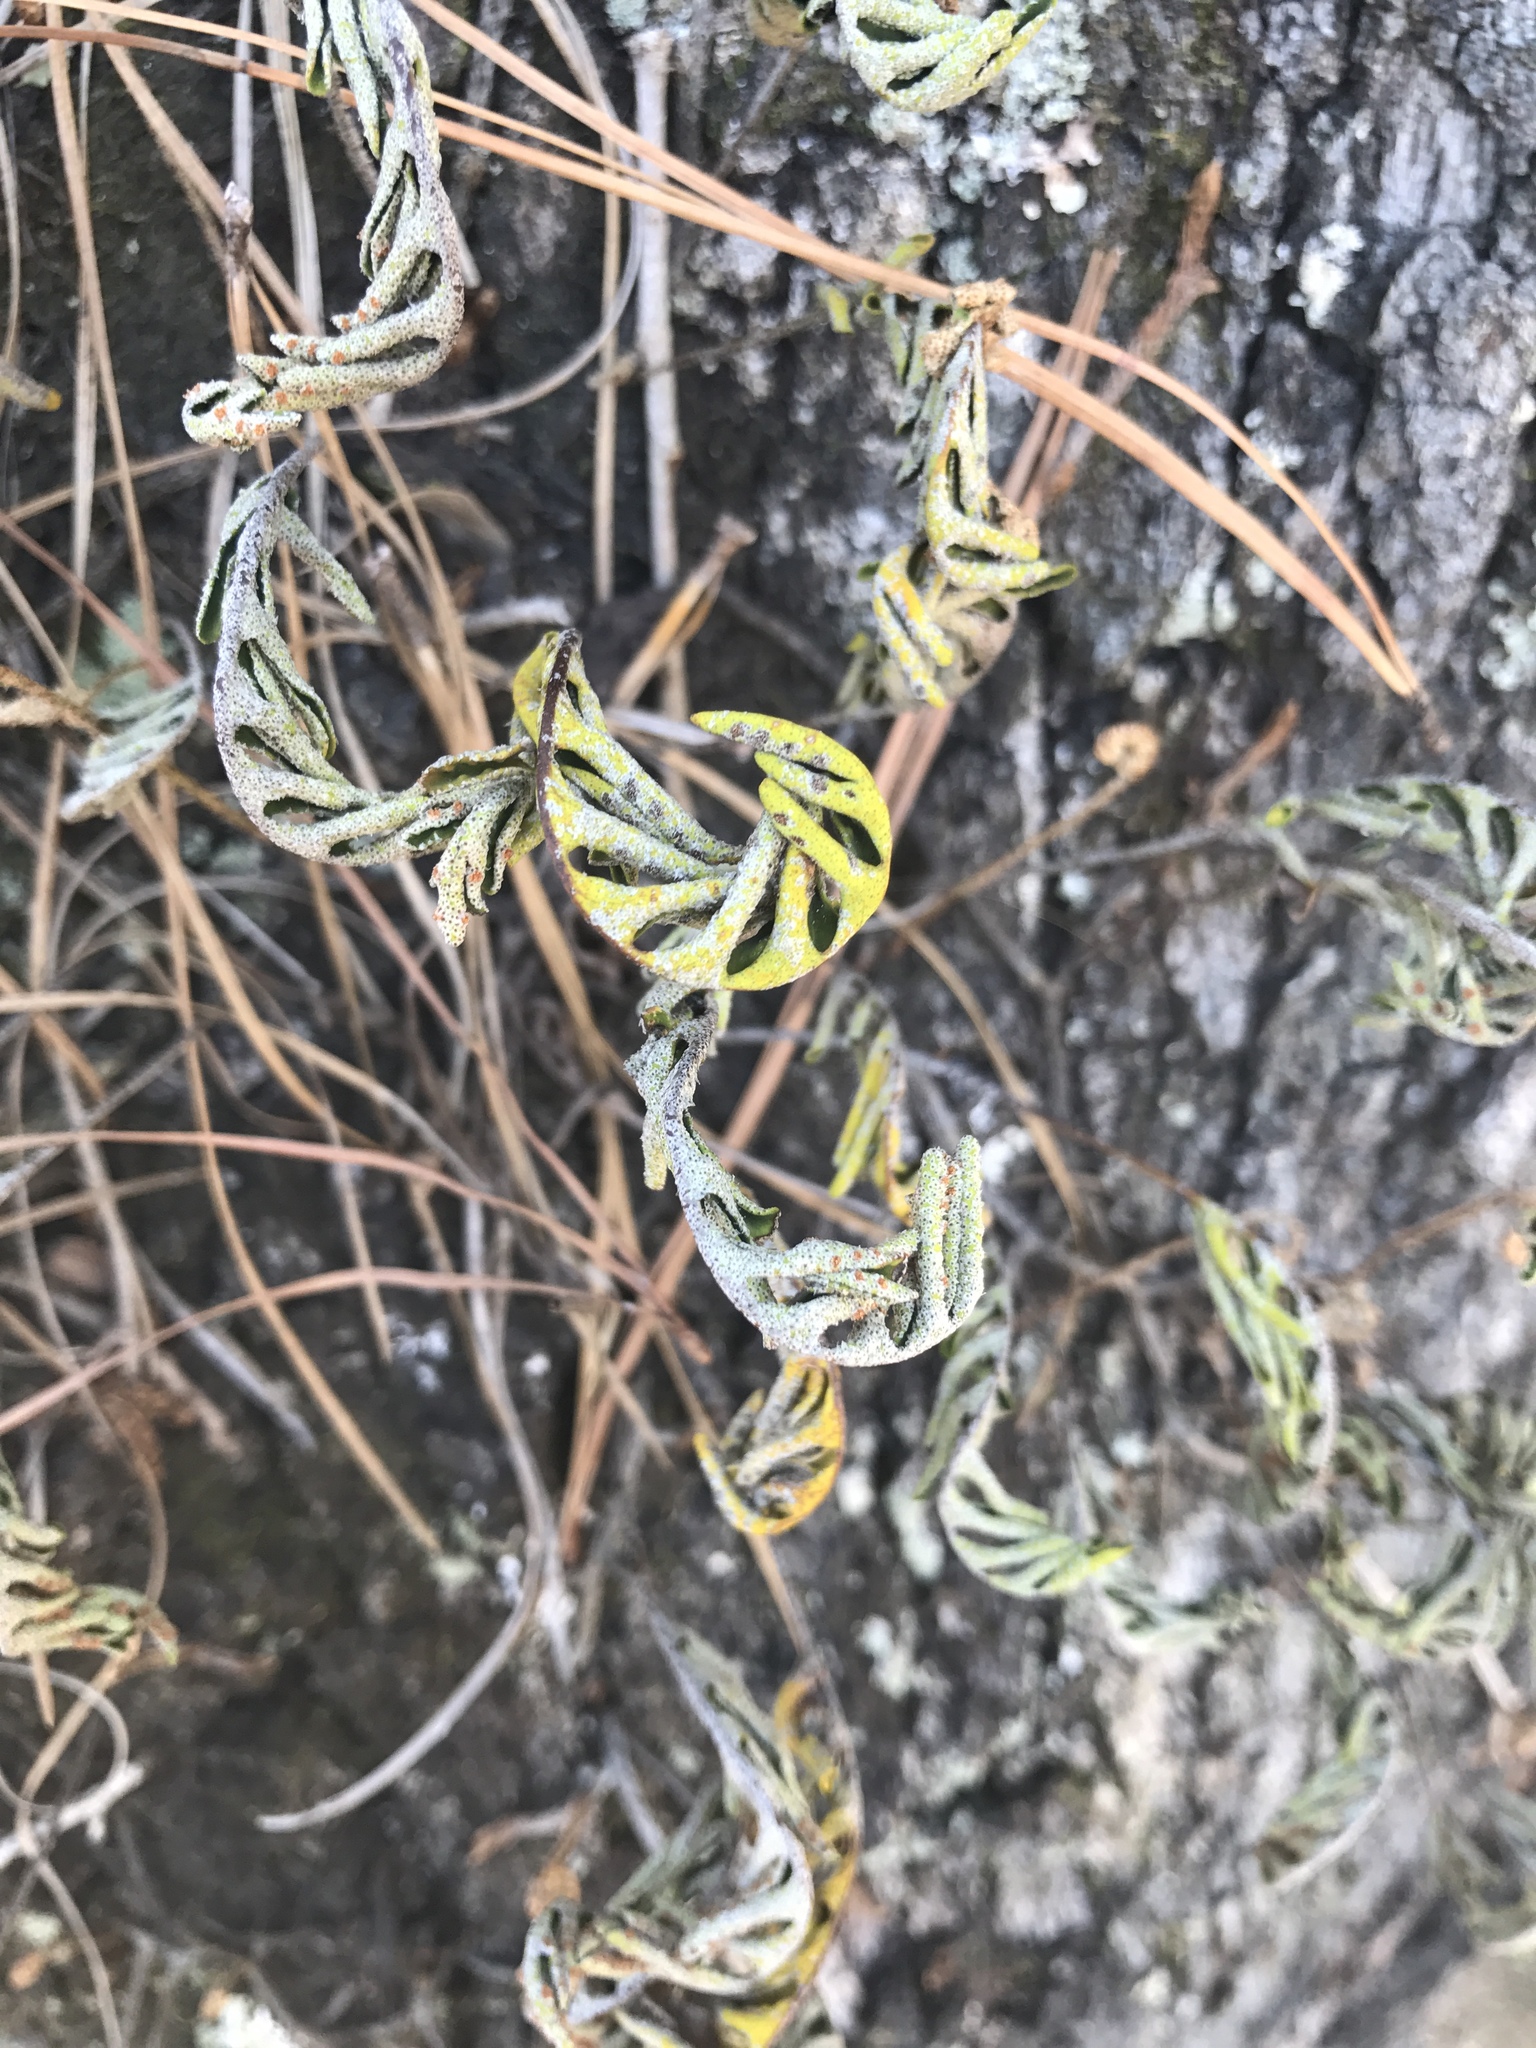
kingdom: Plantae
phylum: Tracheophyta
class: Polypodiopsida
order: Polypodiales
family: Polypodiaceae
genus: Pleopeltis
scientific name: Pleopeltis michauxiana
